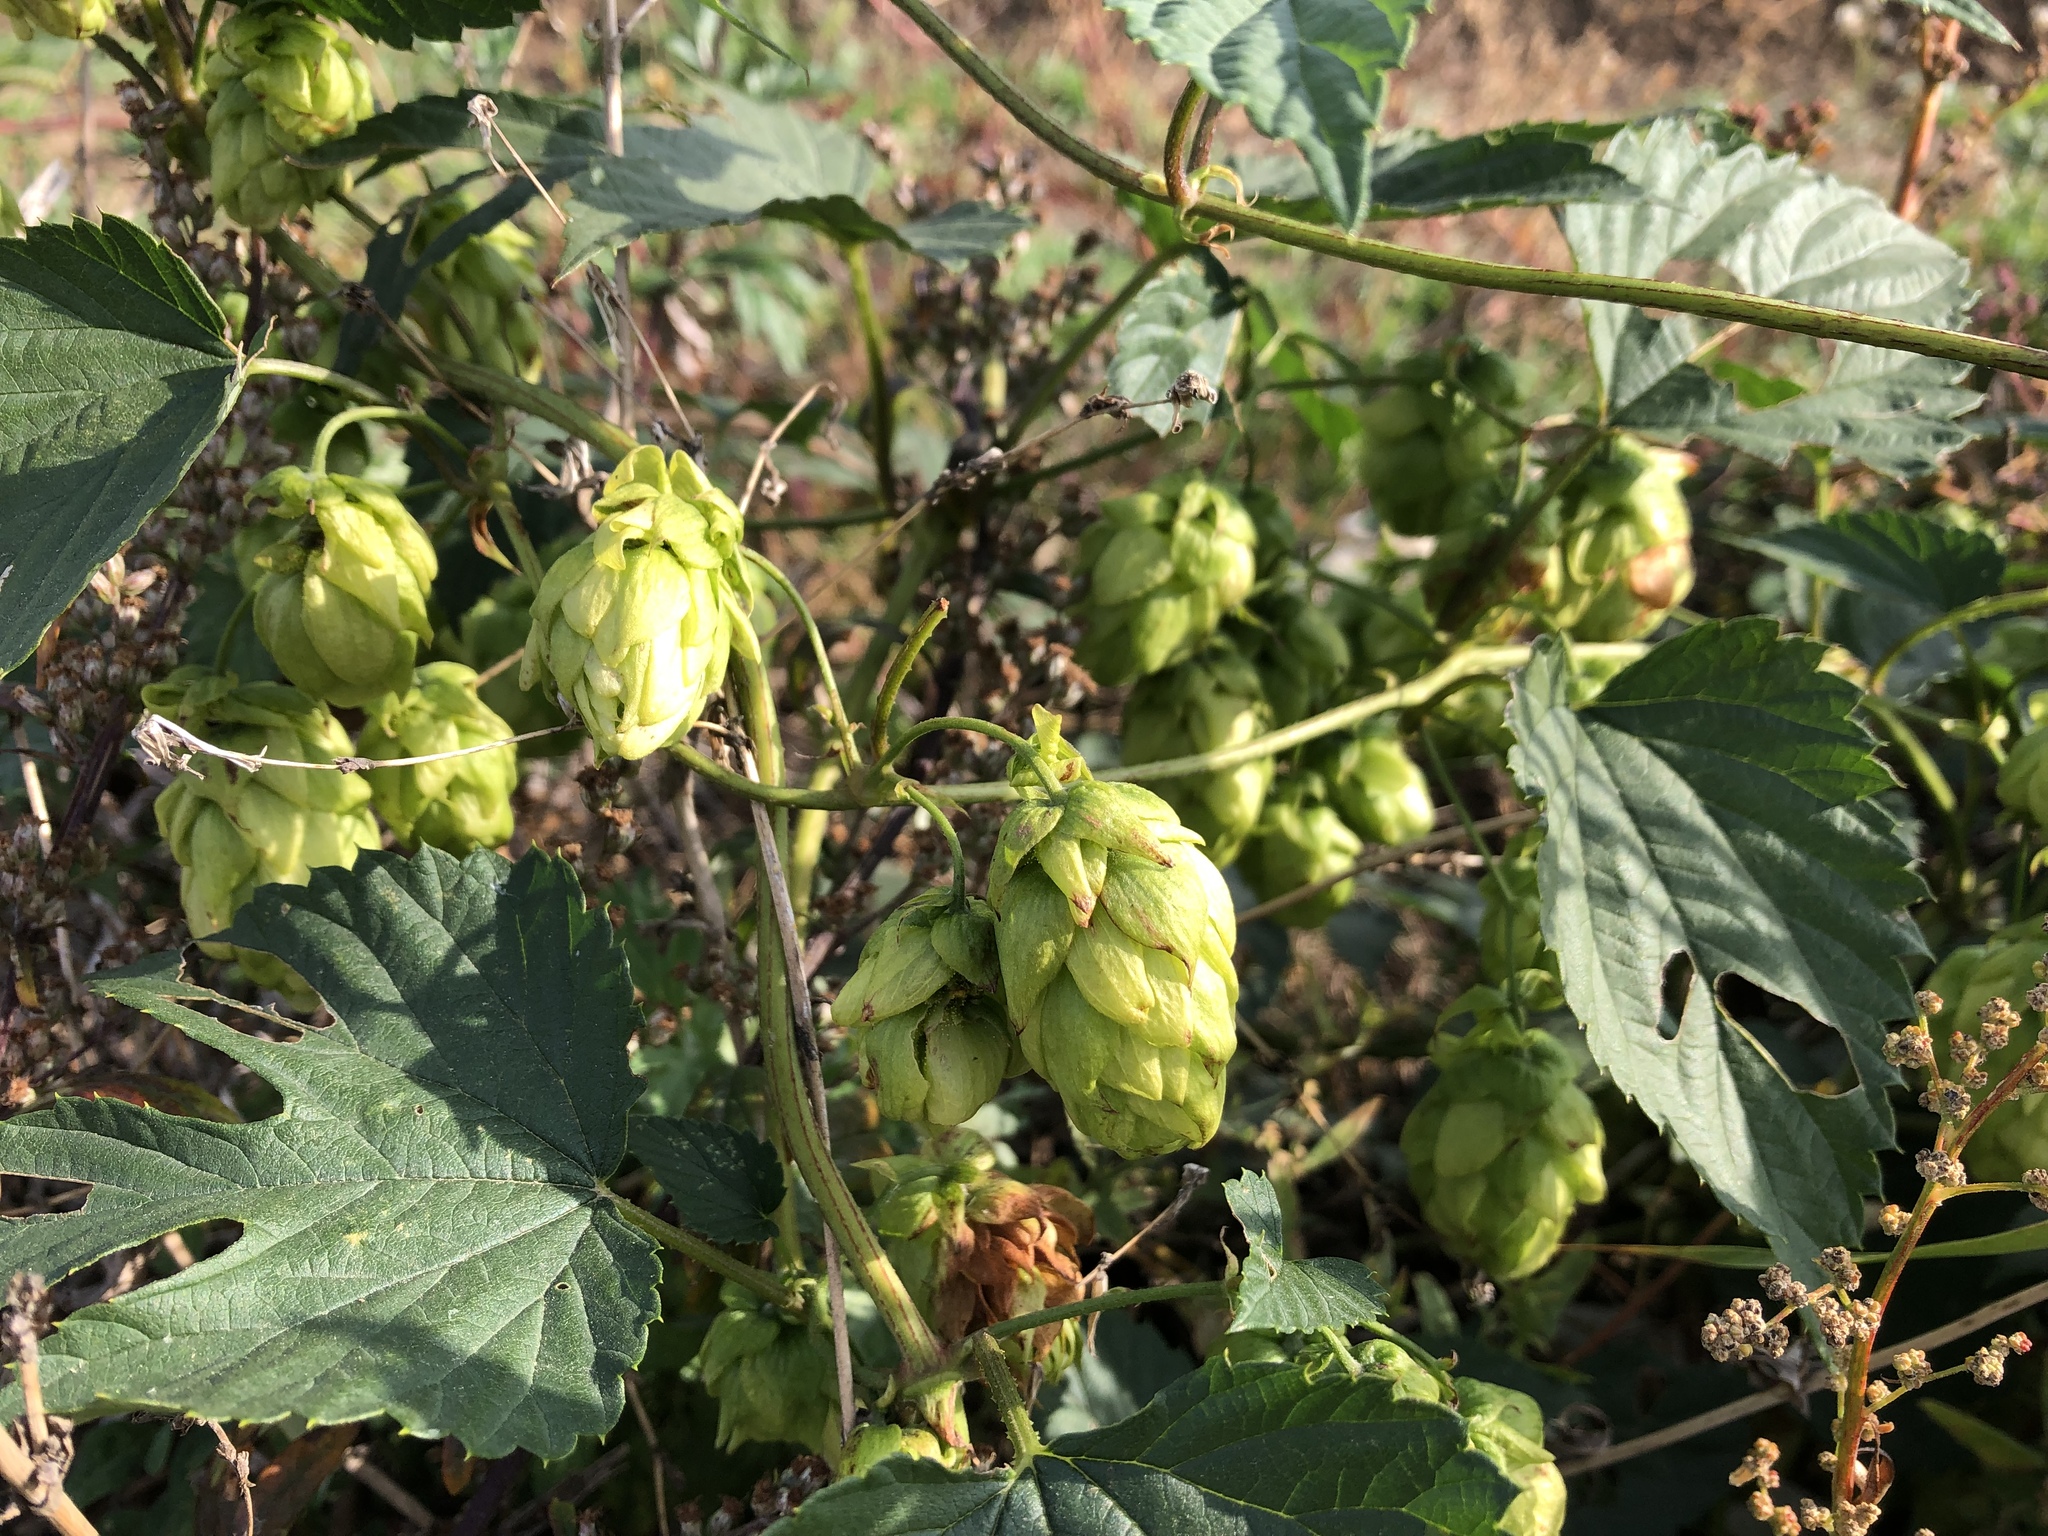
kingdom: Plantae
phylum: Tracheophyta
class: Magnoliopsida
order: Rosales
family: Cannabaceae
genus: Humulus
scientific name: Humulus lupulus
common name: Hop
